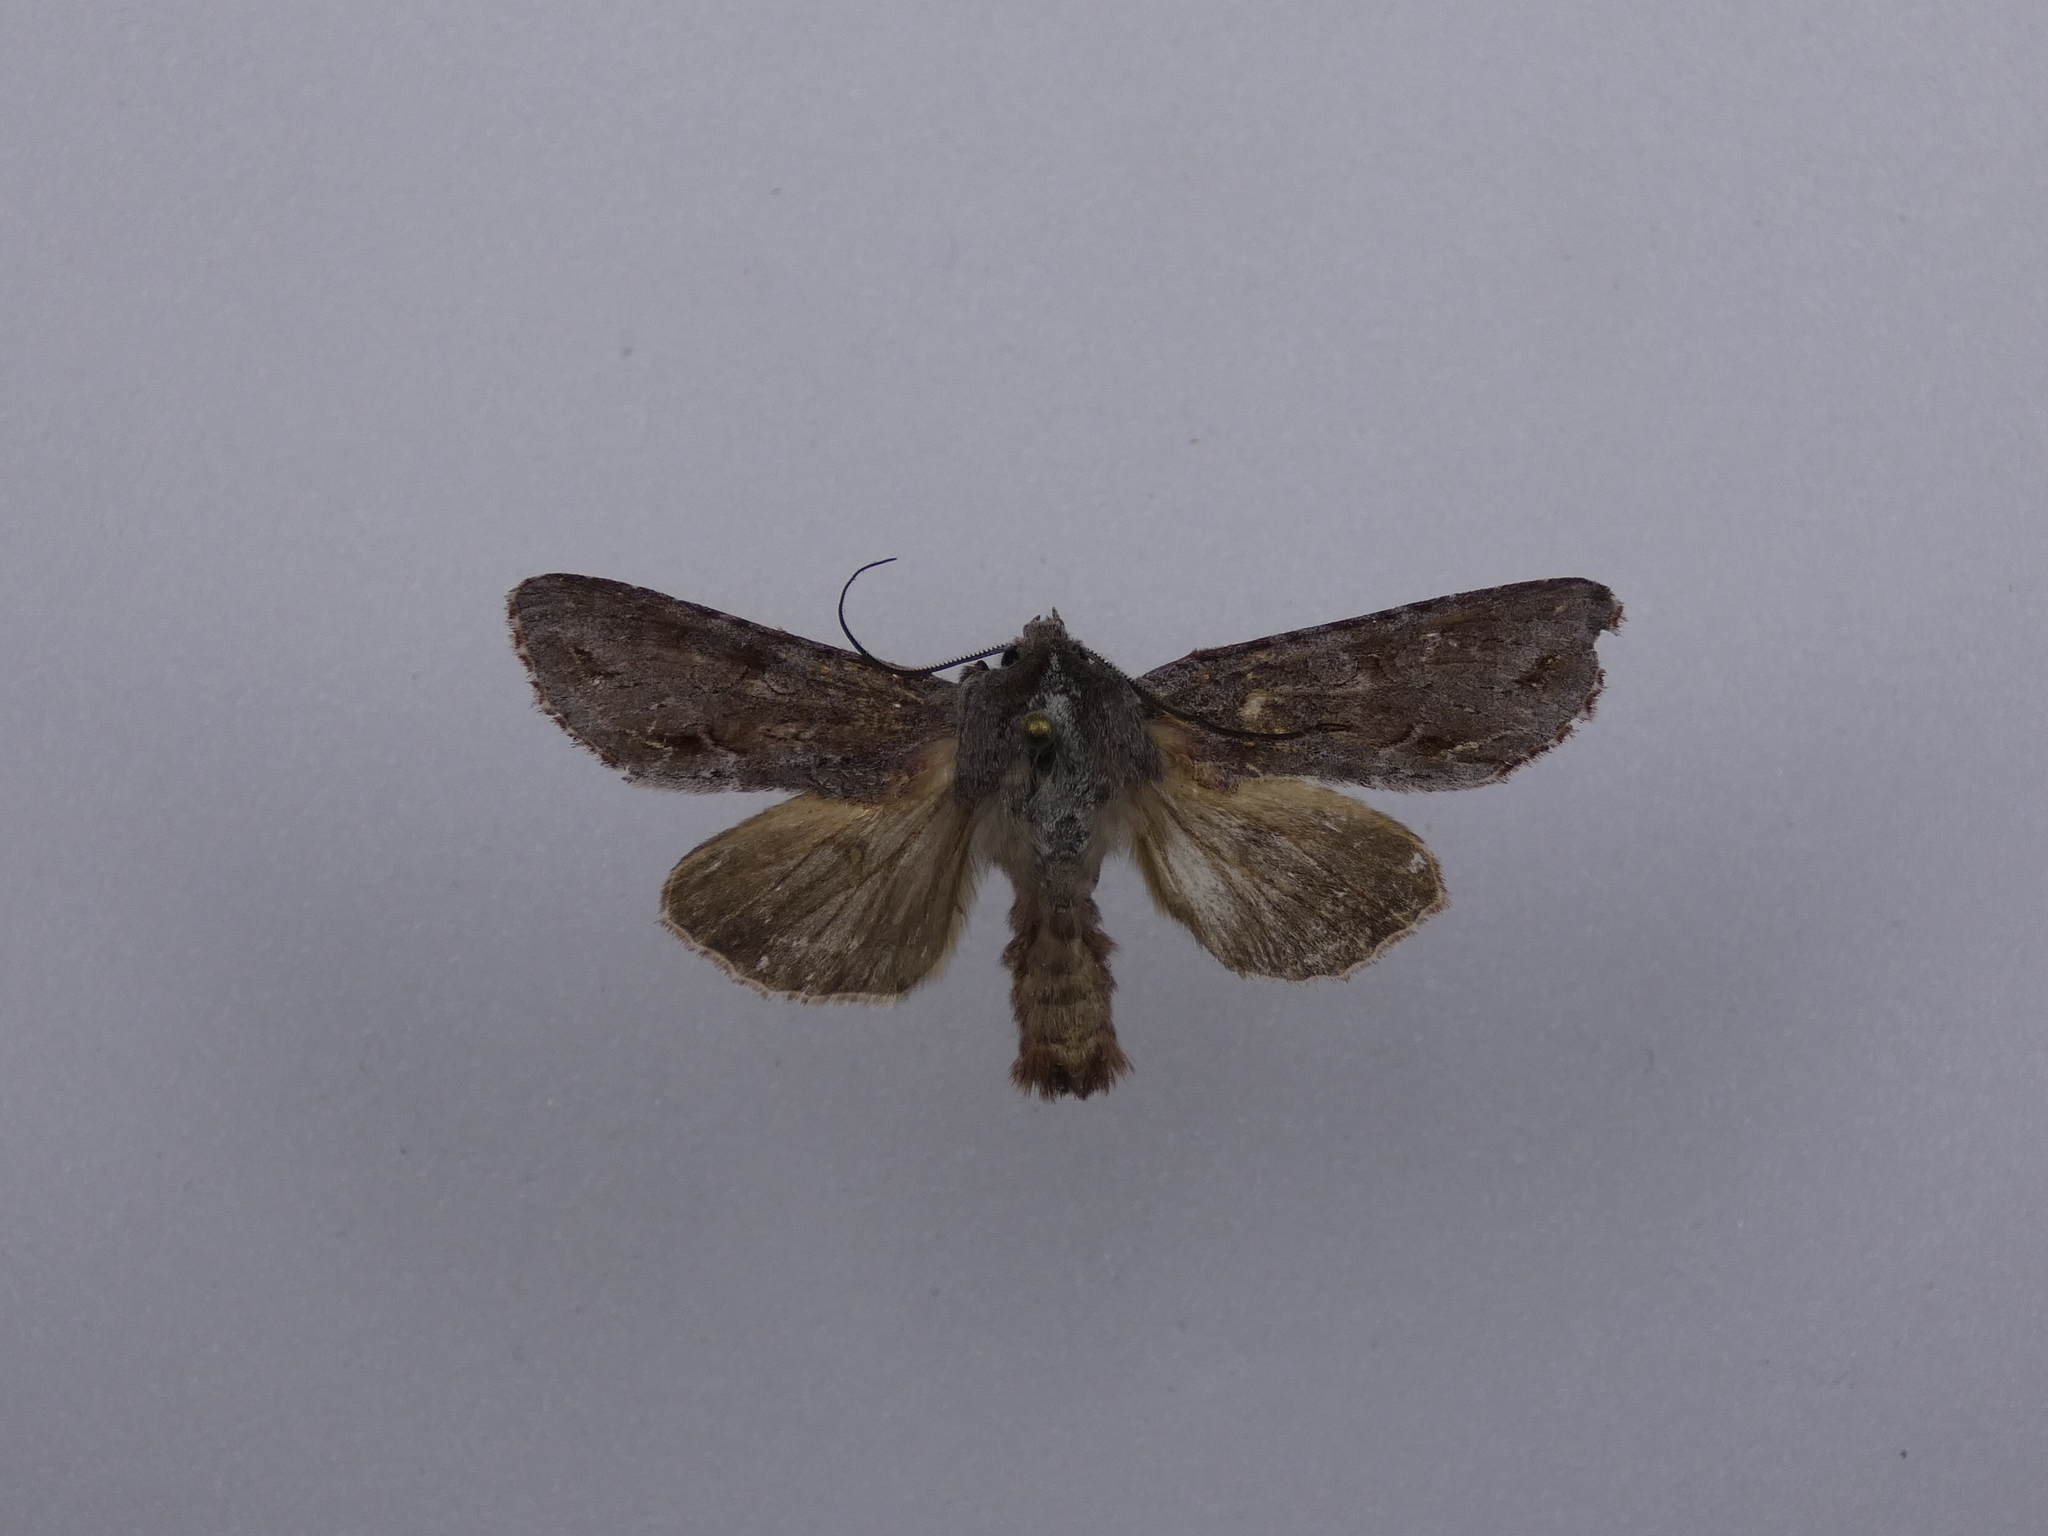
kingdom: Animalia
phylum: Arthropoda
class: Insecta
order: Lepidoptera
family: Noctuidae
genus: Ichneutica
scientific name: Ichneutica
